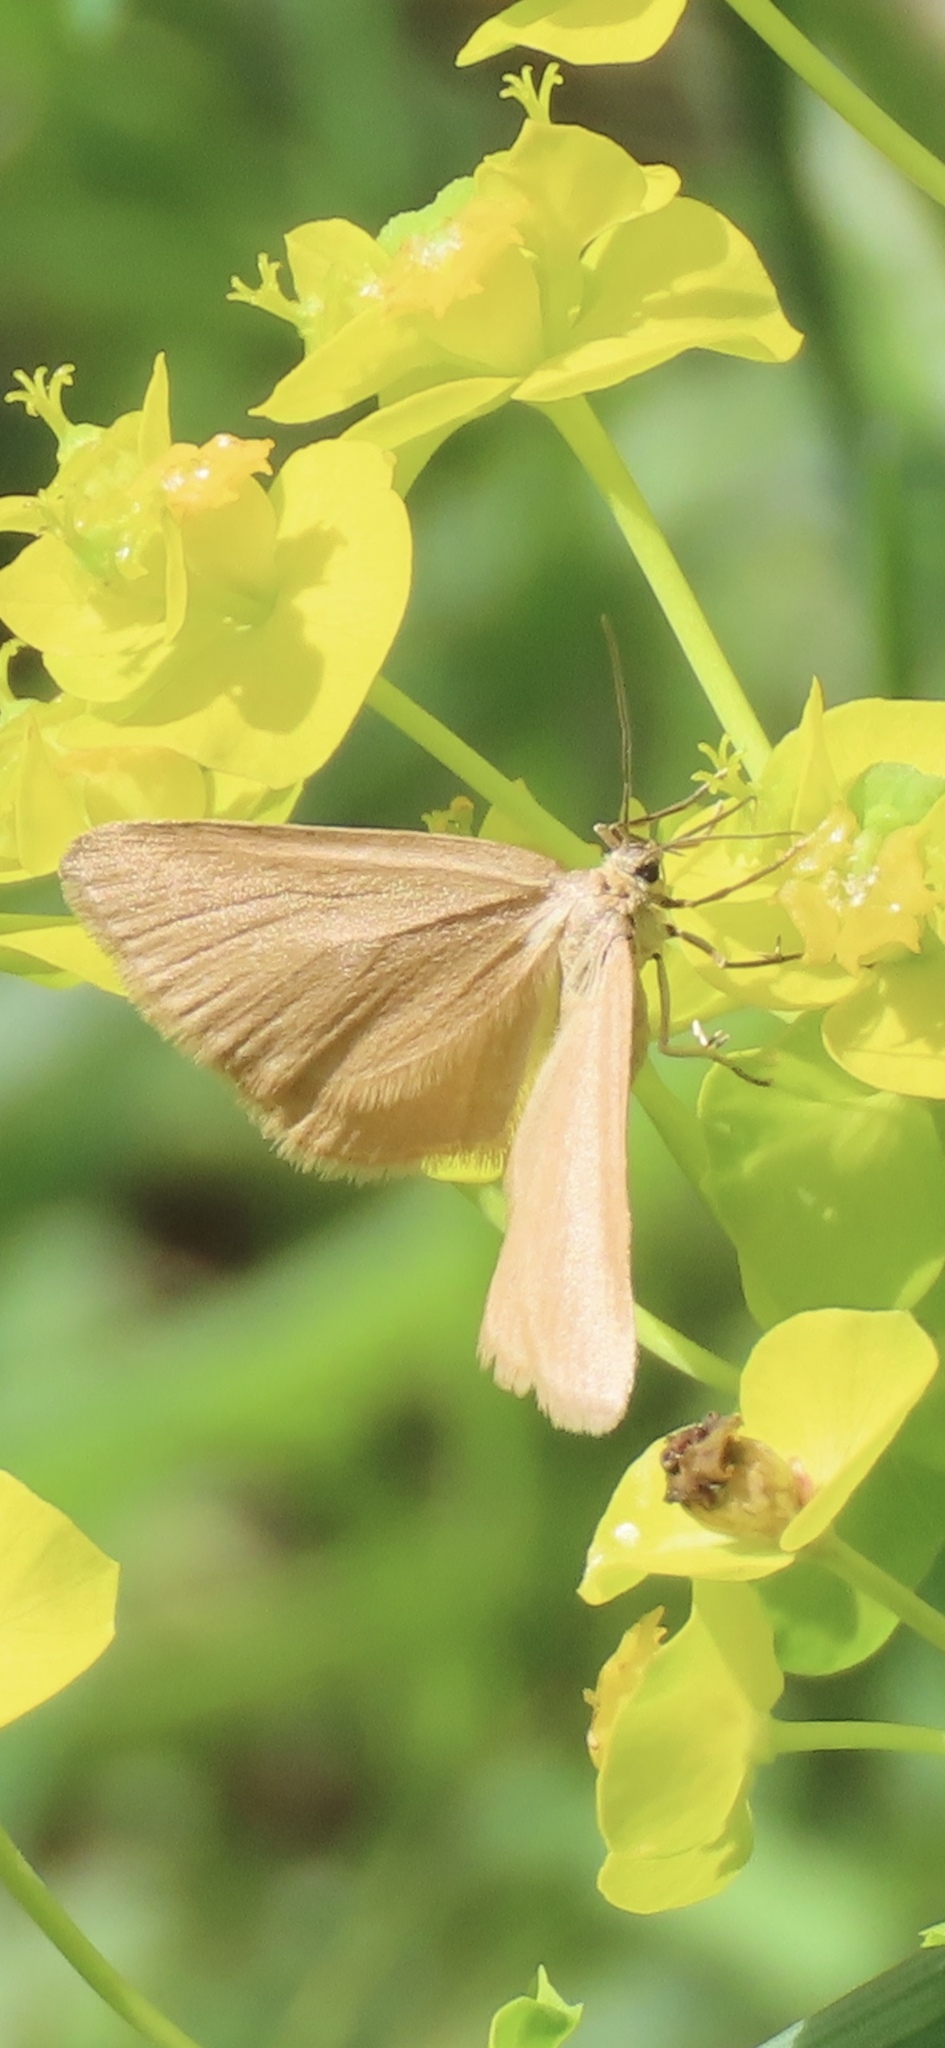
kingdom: Animalia
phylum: Arthropoda
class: Insecta
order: Lepidoptera
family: Geometridae
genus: Minoa
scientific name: Minoa murinata
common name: Drab looper
